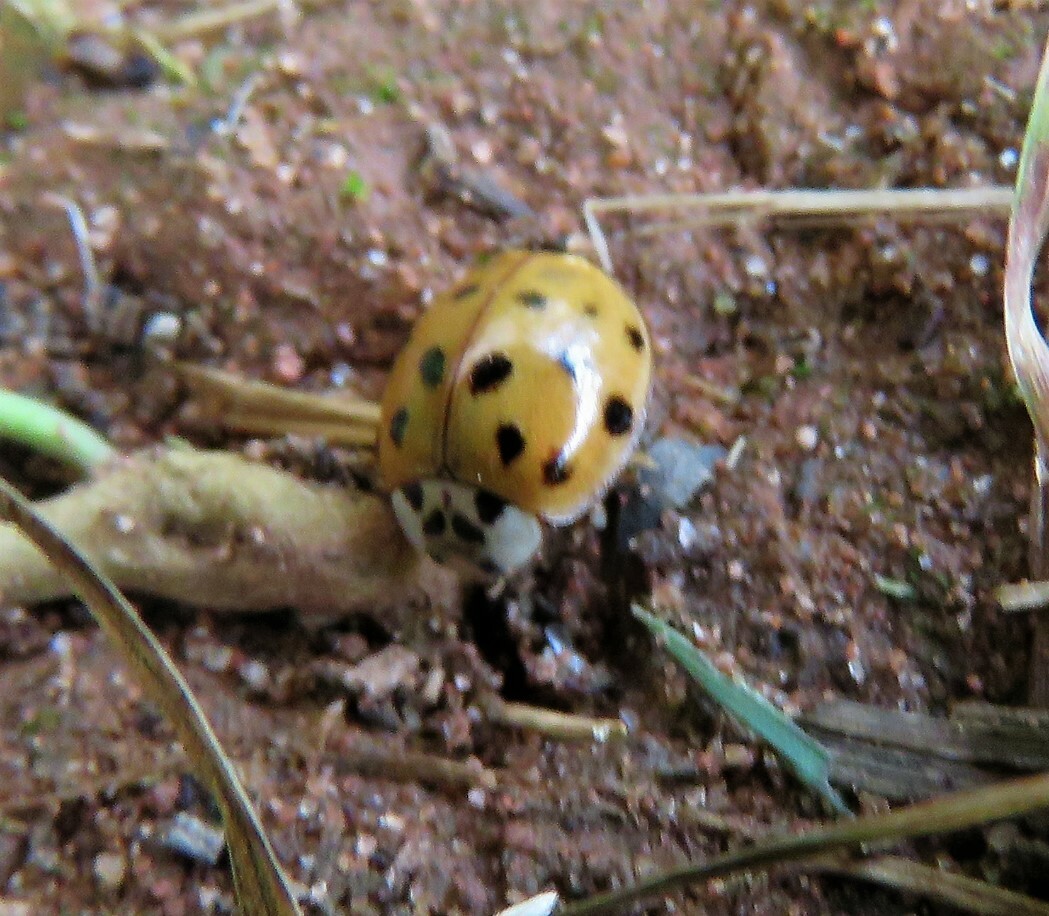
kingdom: Animalia
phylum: Arthropoda
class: Insecta
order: Coleoptera
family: Coccinellidae
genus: Harmonia
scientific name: Harmonia axyridis
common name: Harlequin ladybird
